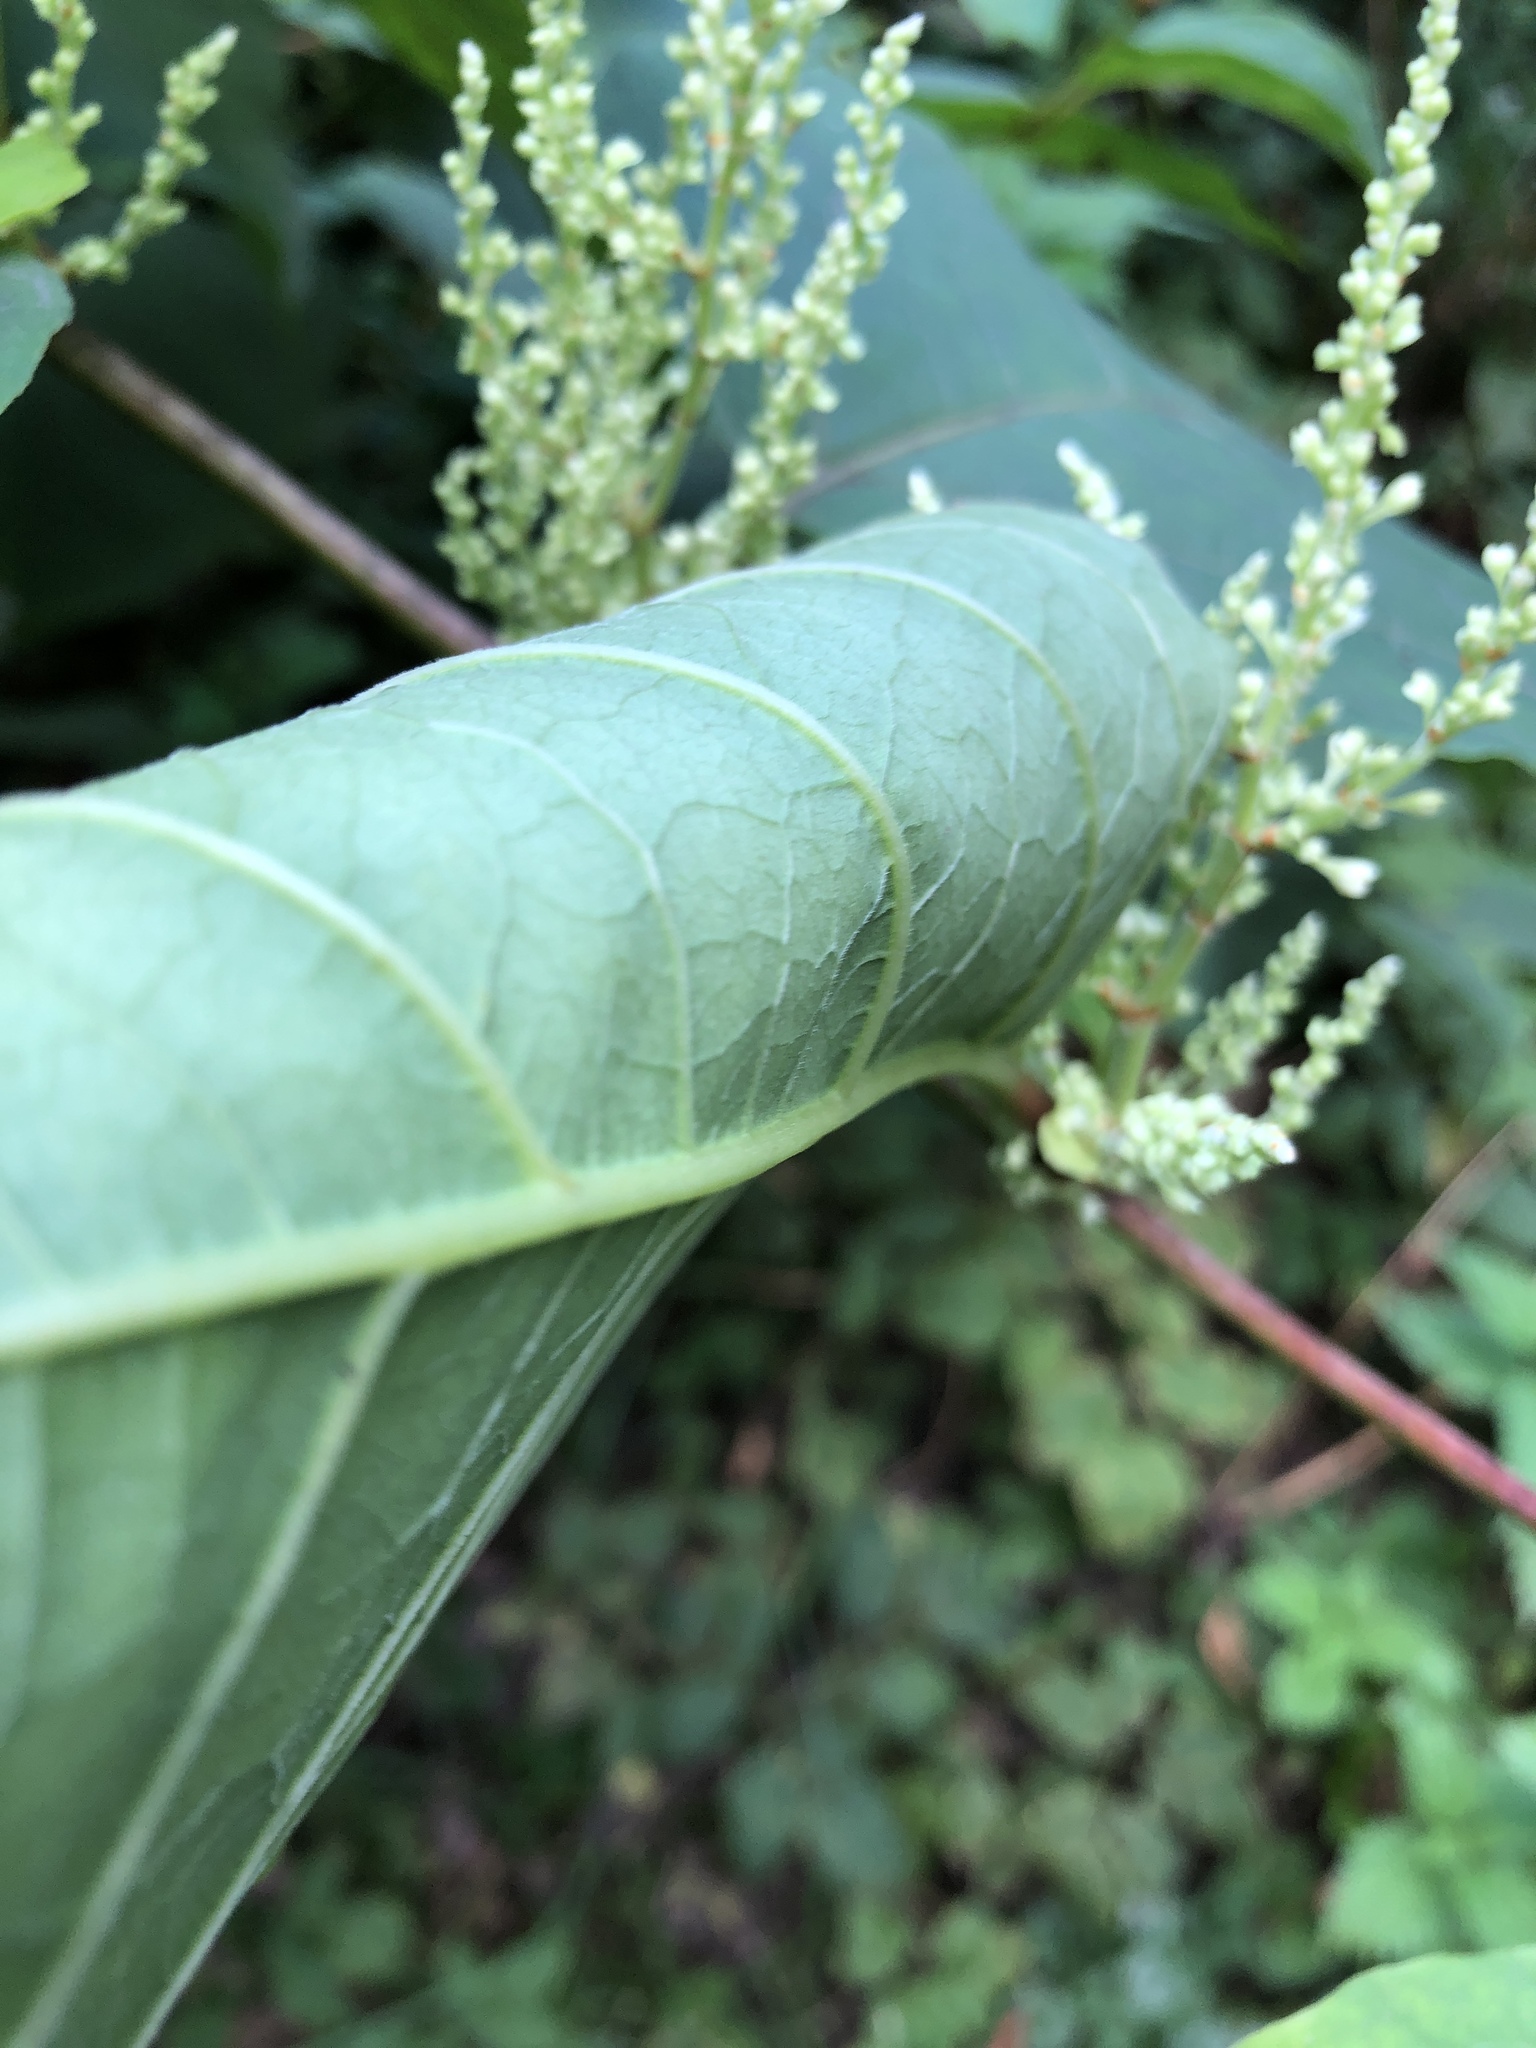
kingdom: Plantae
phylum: Tracheophyta
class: Magnoliopsida
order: Caryophyllales
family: Polygonaceae
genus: Reynoutria
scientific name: Reynoutria bohemica
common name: Bohemian knotweed
